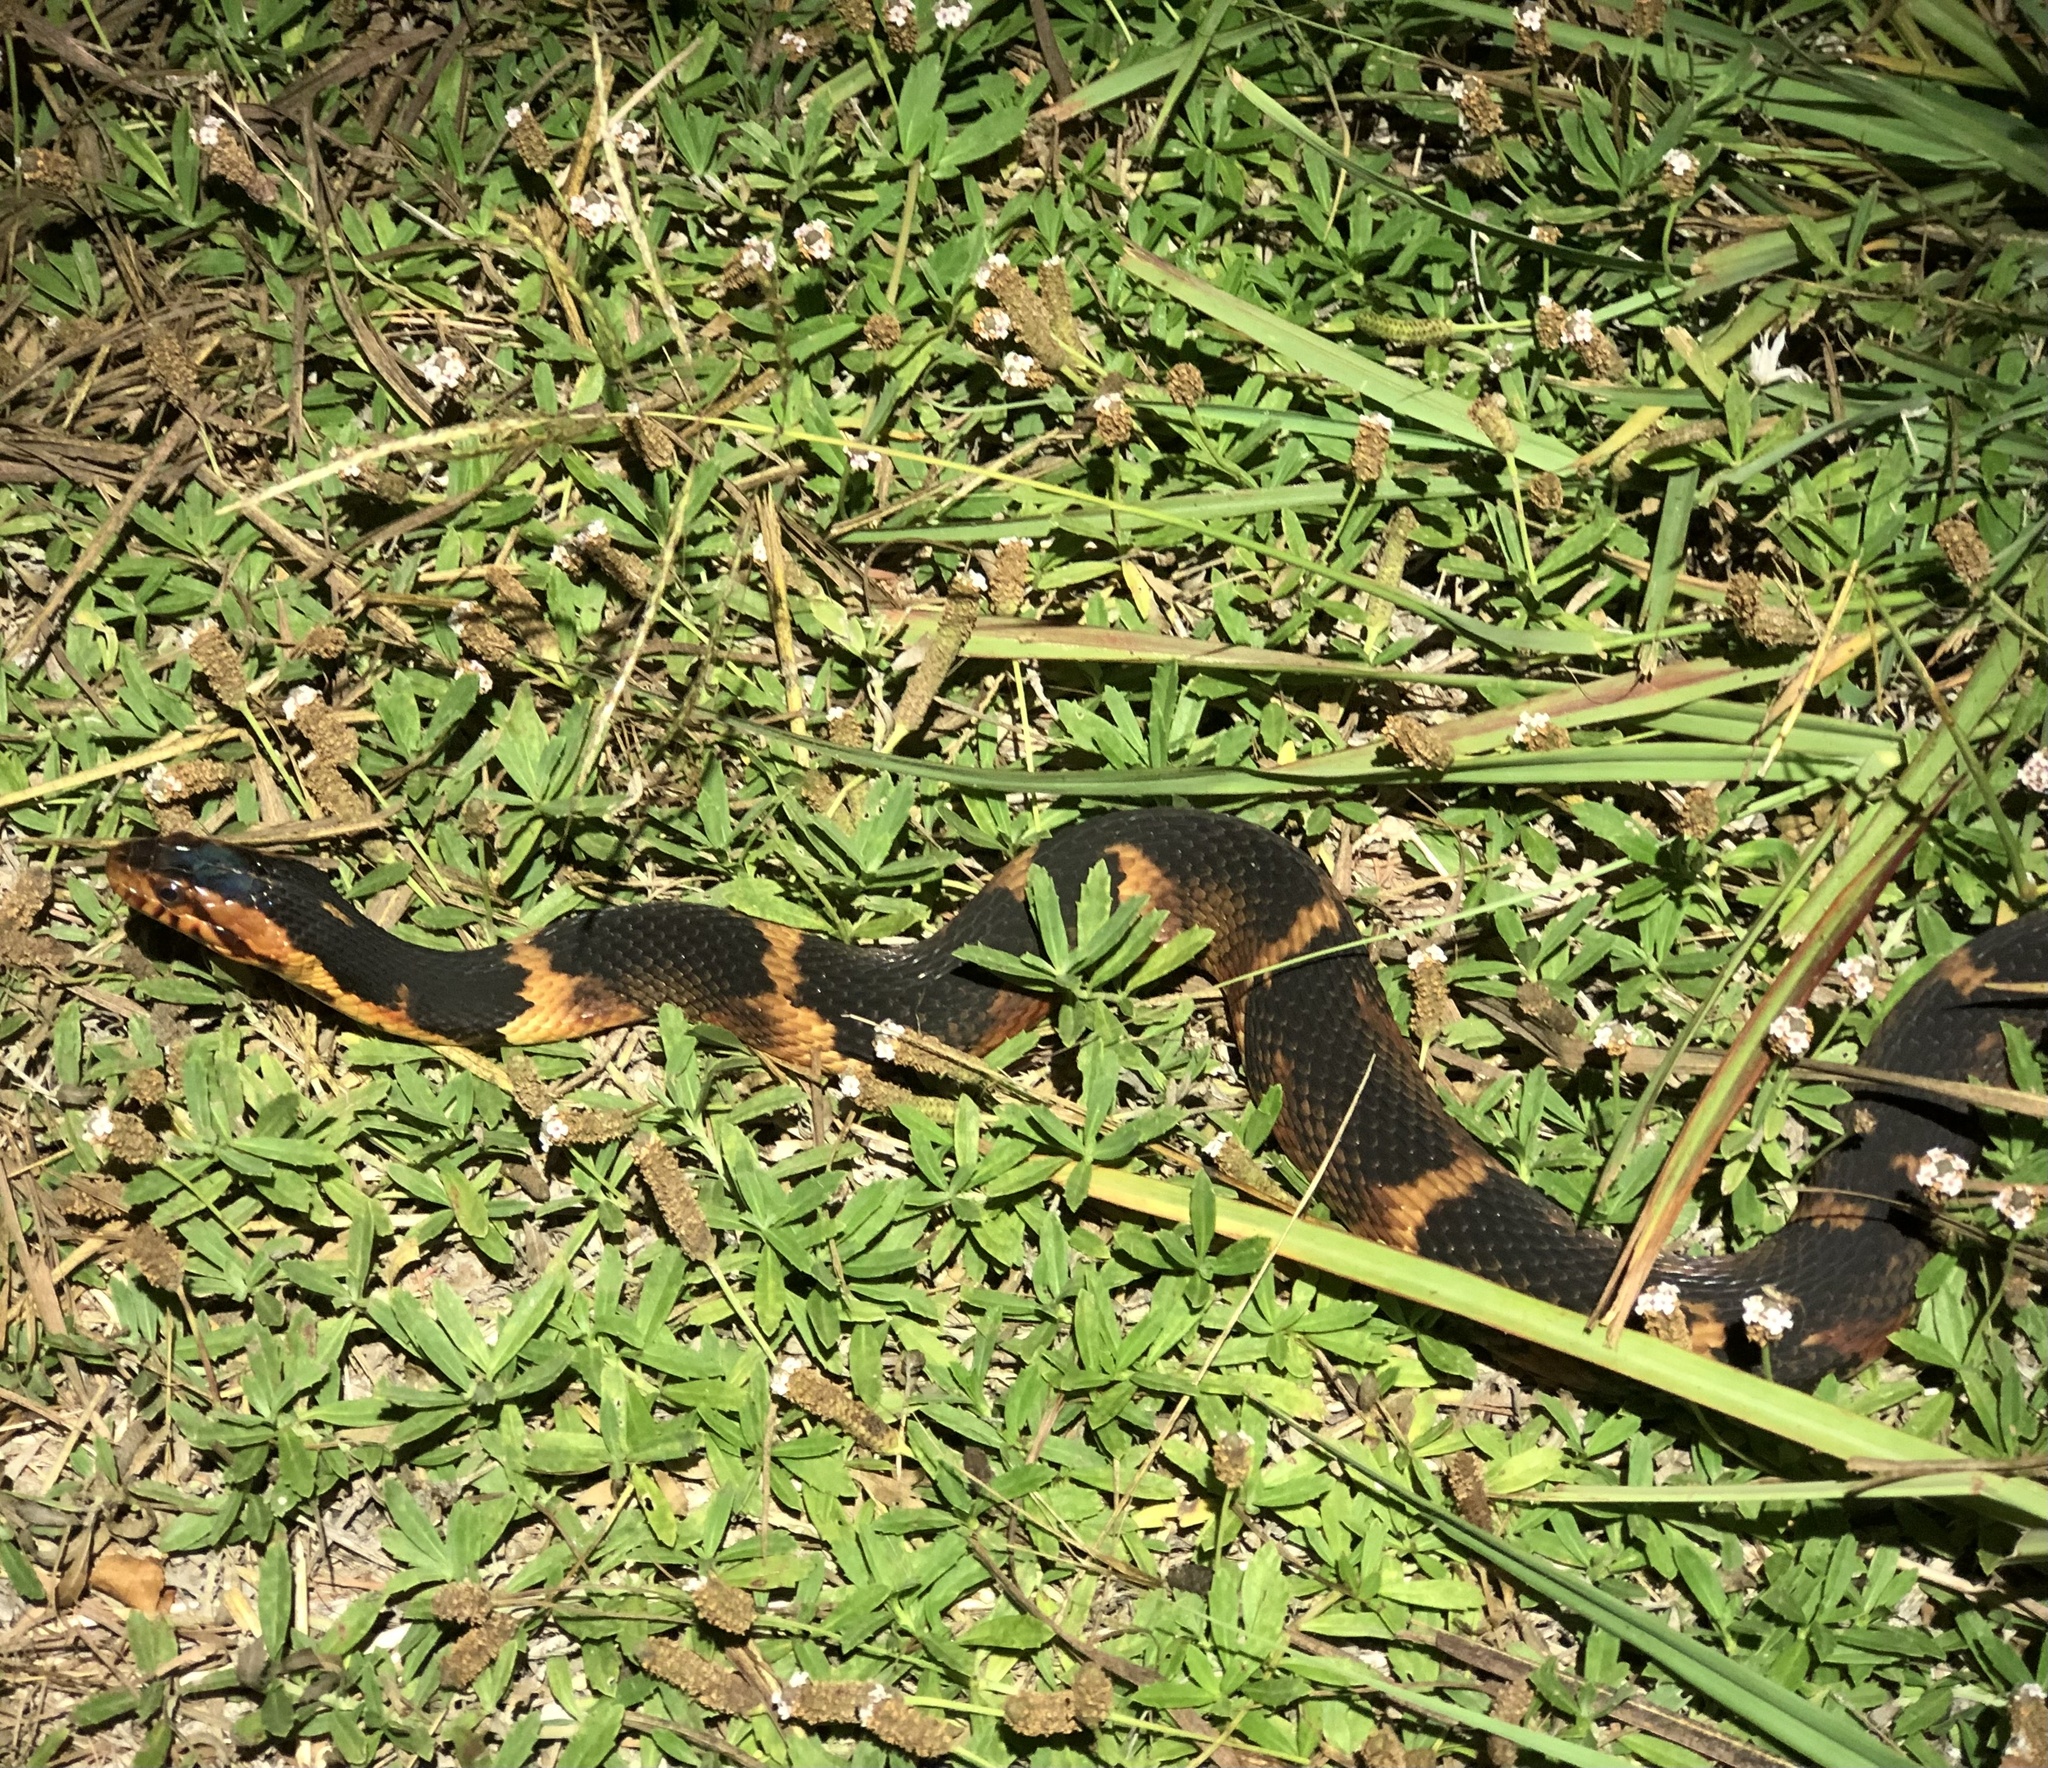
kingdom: Animalia
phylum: Chordata
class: Squamata
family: Colubridae
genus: Nerodia
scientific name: Nerodia fasciata
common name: Southern water snake
